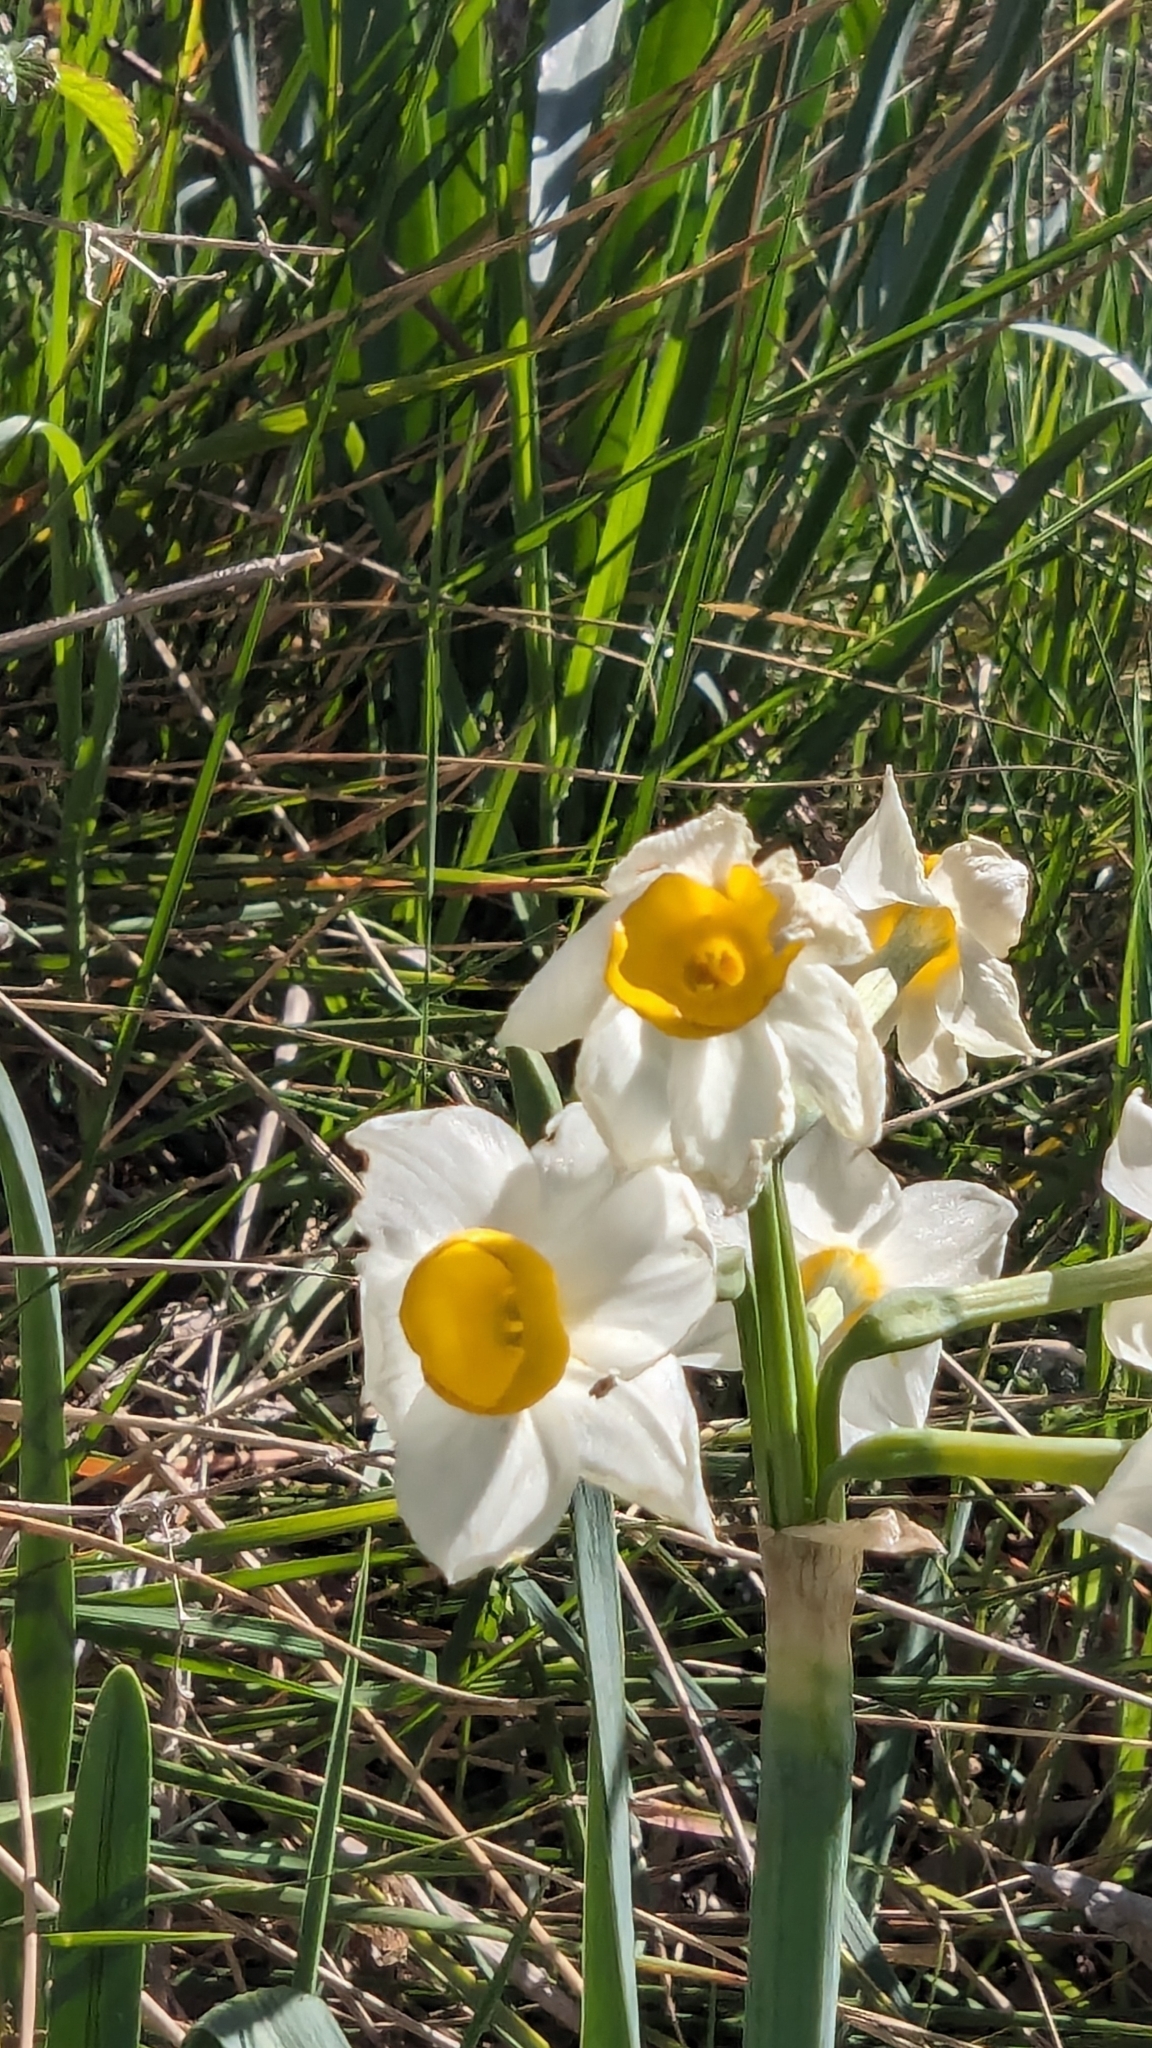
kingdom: Plantae
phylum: Tracheophyta
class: Liliopsida
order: Asparagales
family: Amaryllidaceae
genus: Narcissus
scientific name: Narcissus tazetta
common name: Bunch-flowered daffodil
